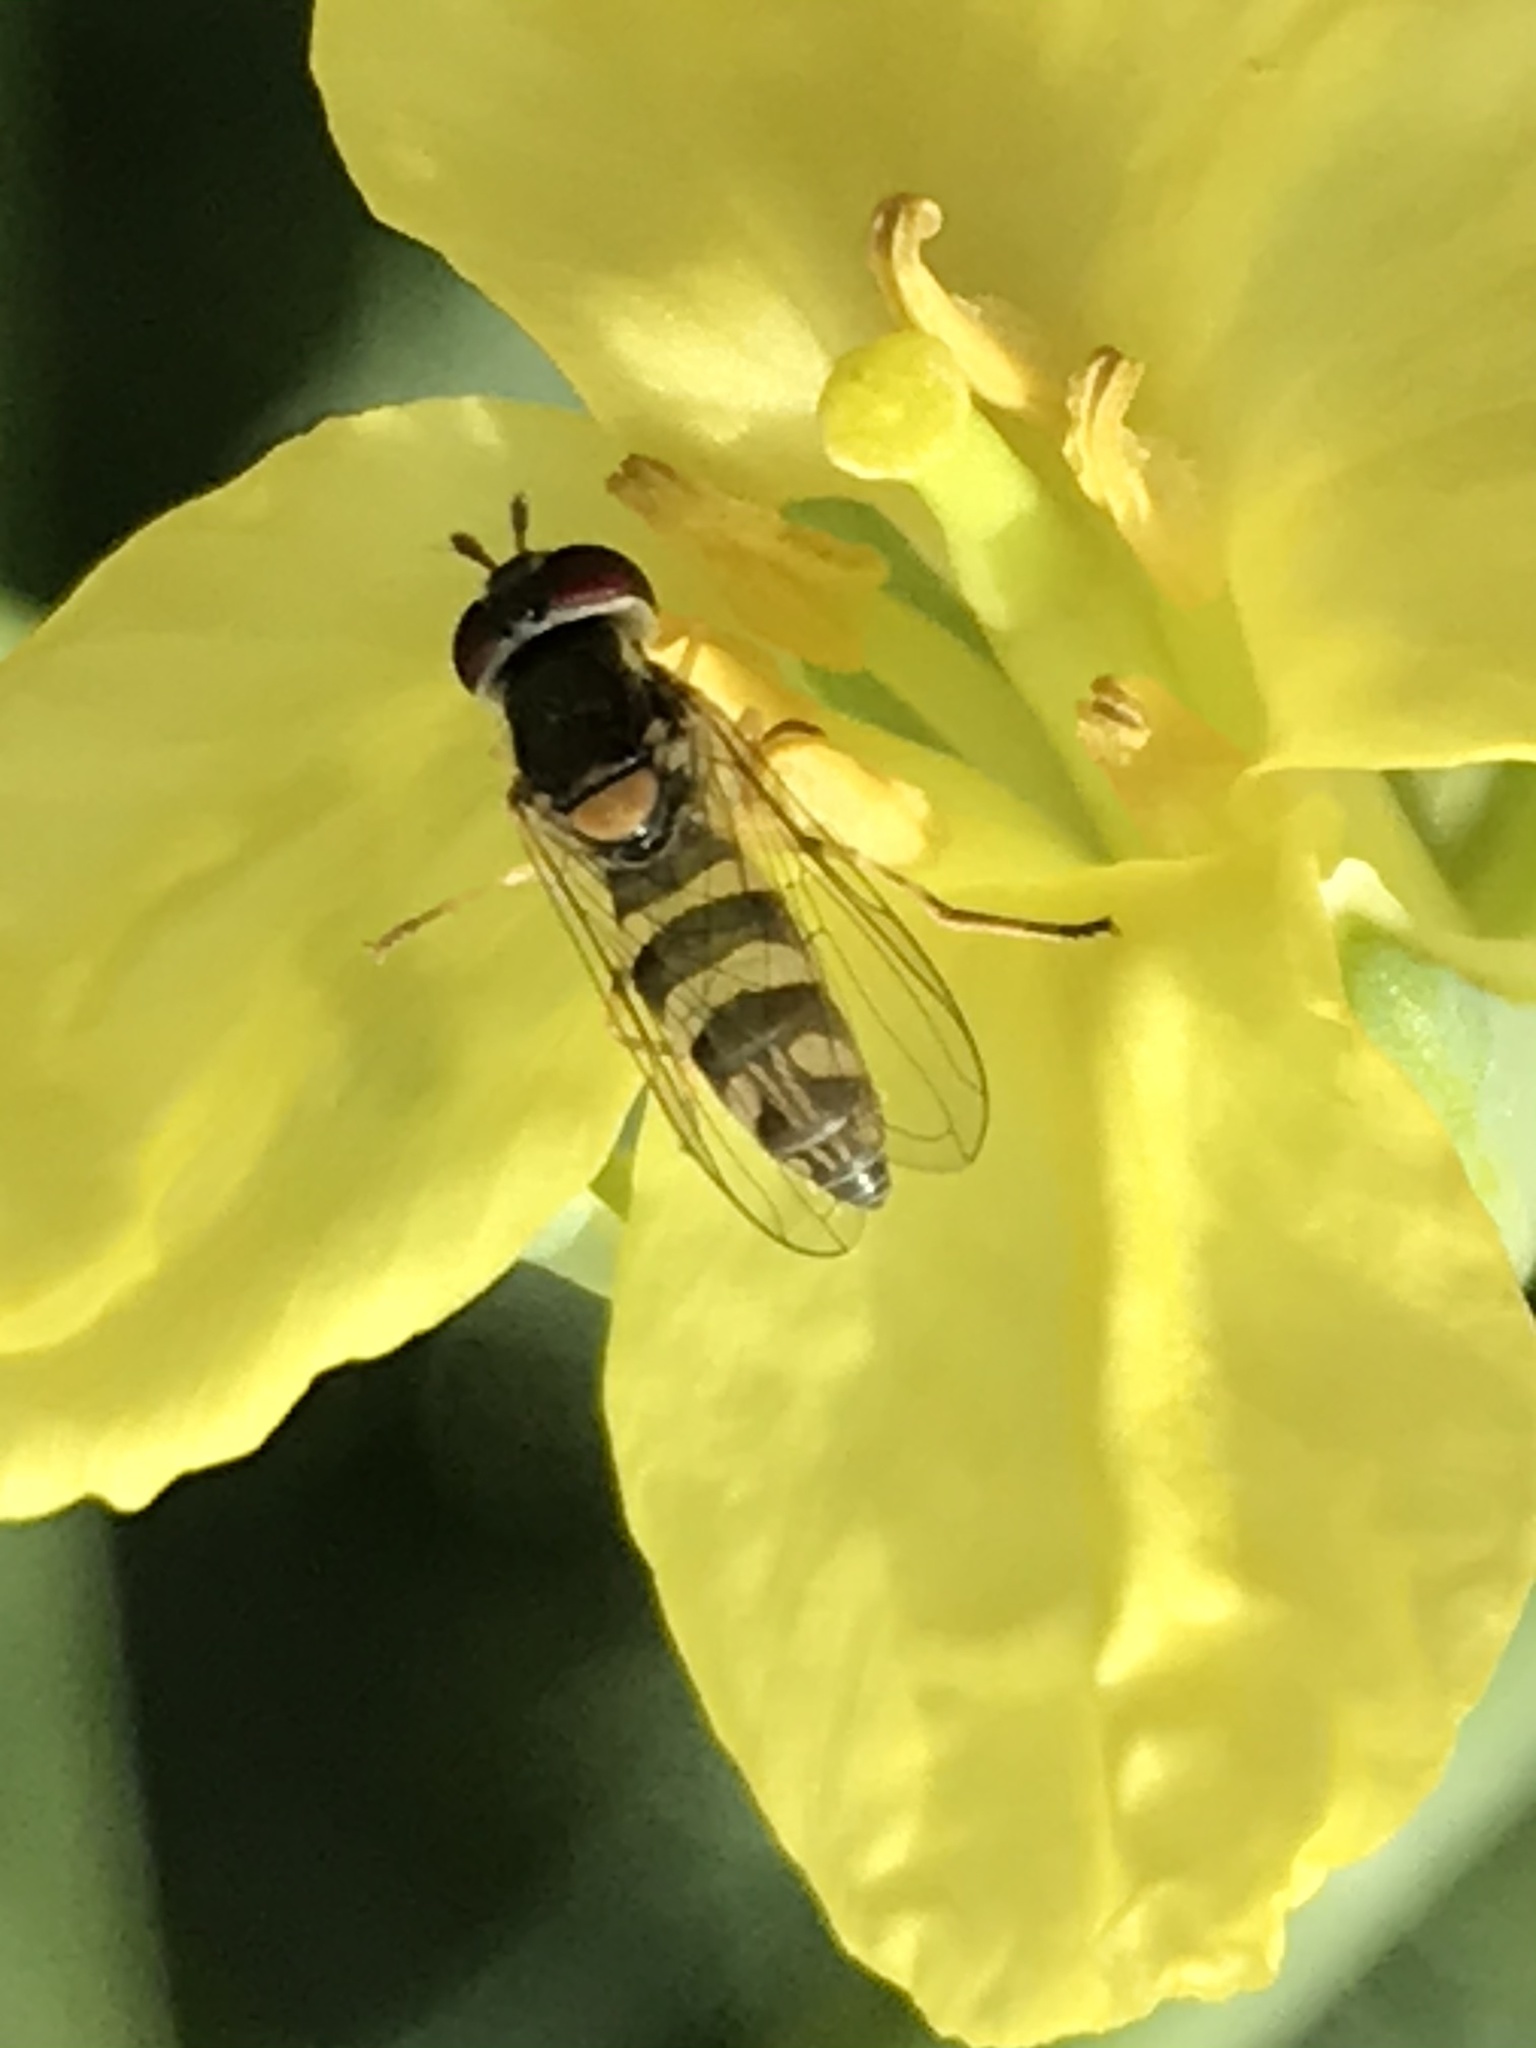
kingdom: Animalia
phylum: Arthropoda
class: Insecta
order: Diptera
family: Syrphidae
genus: Allograpta
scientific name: Allograpta exotica
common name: Syrphid fly
